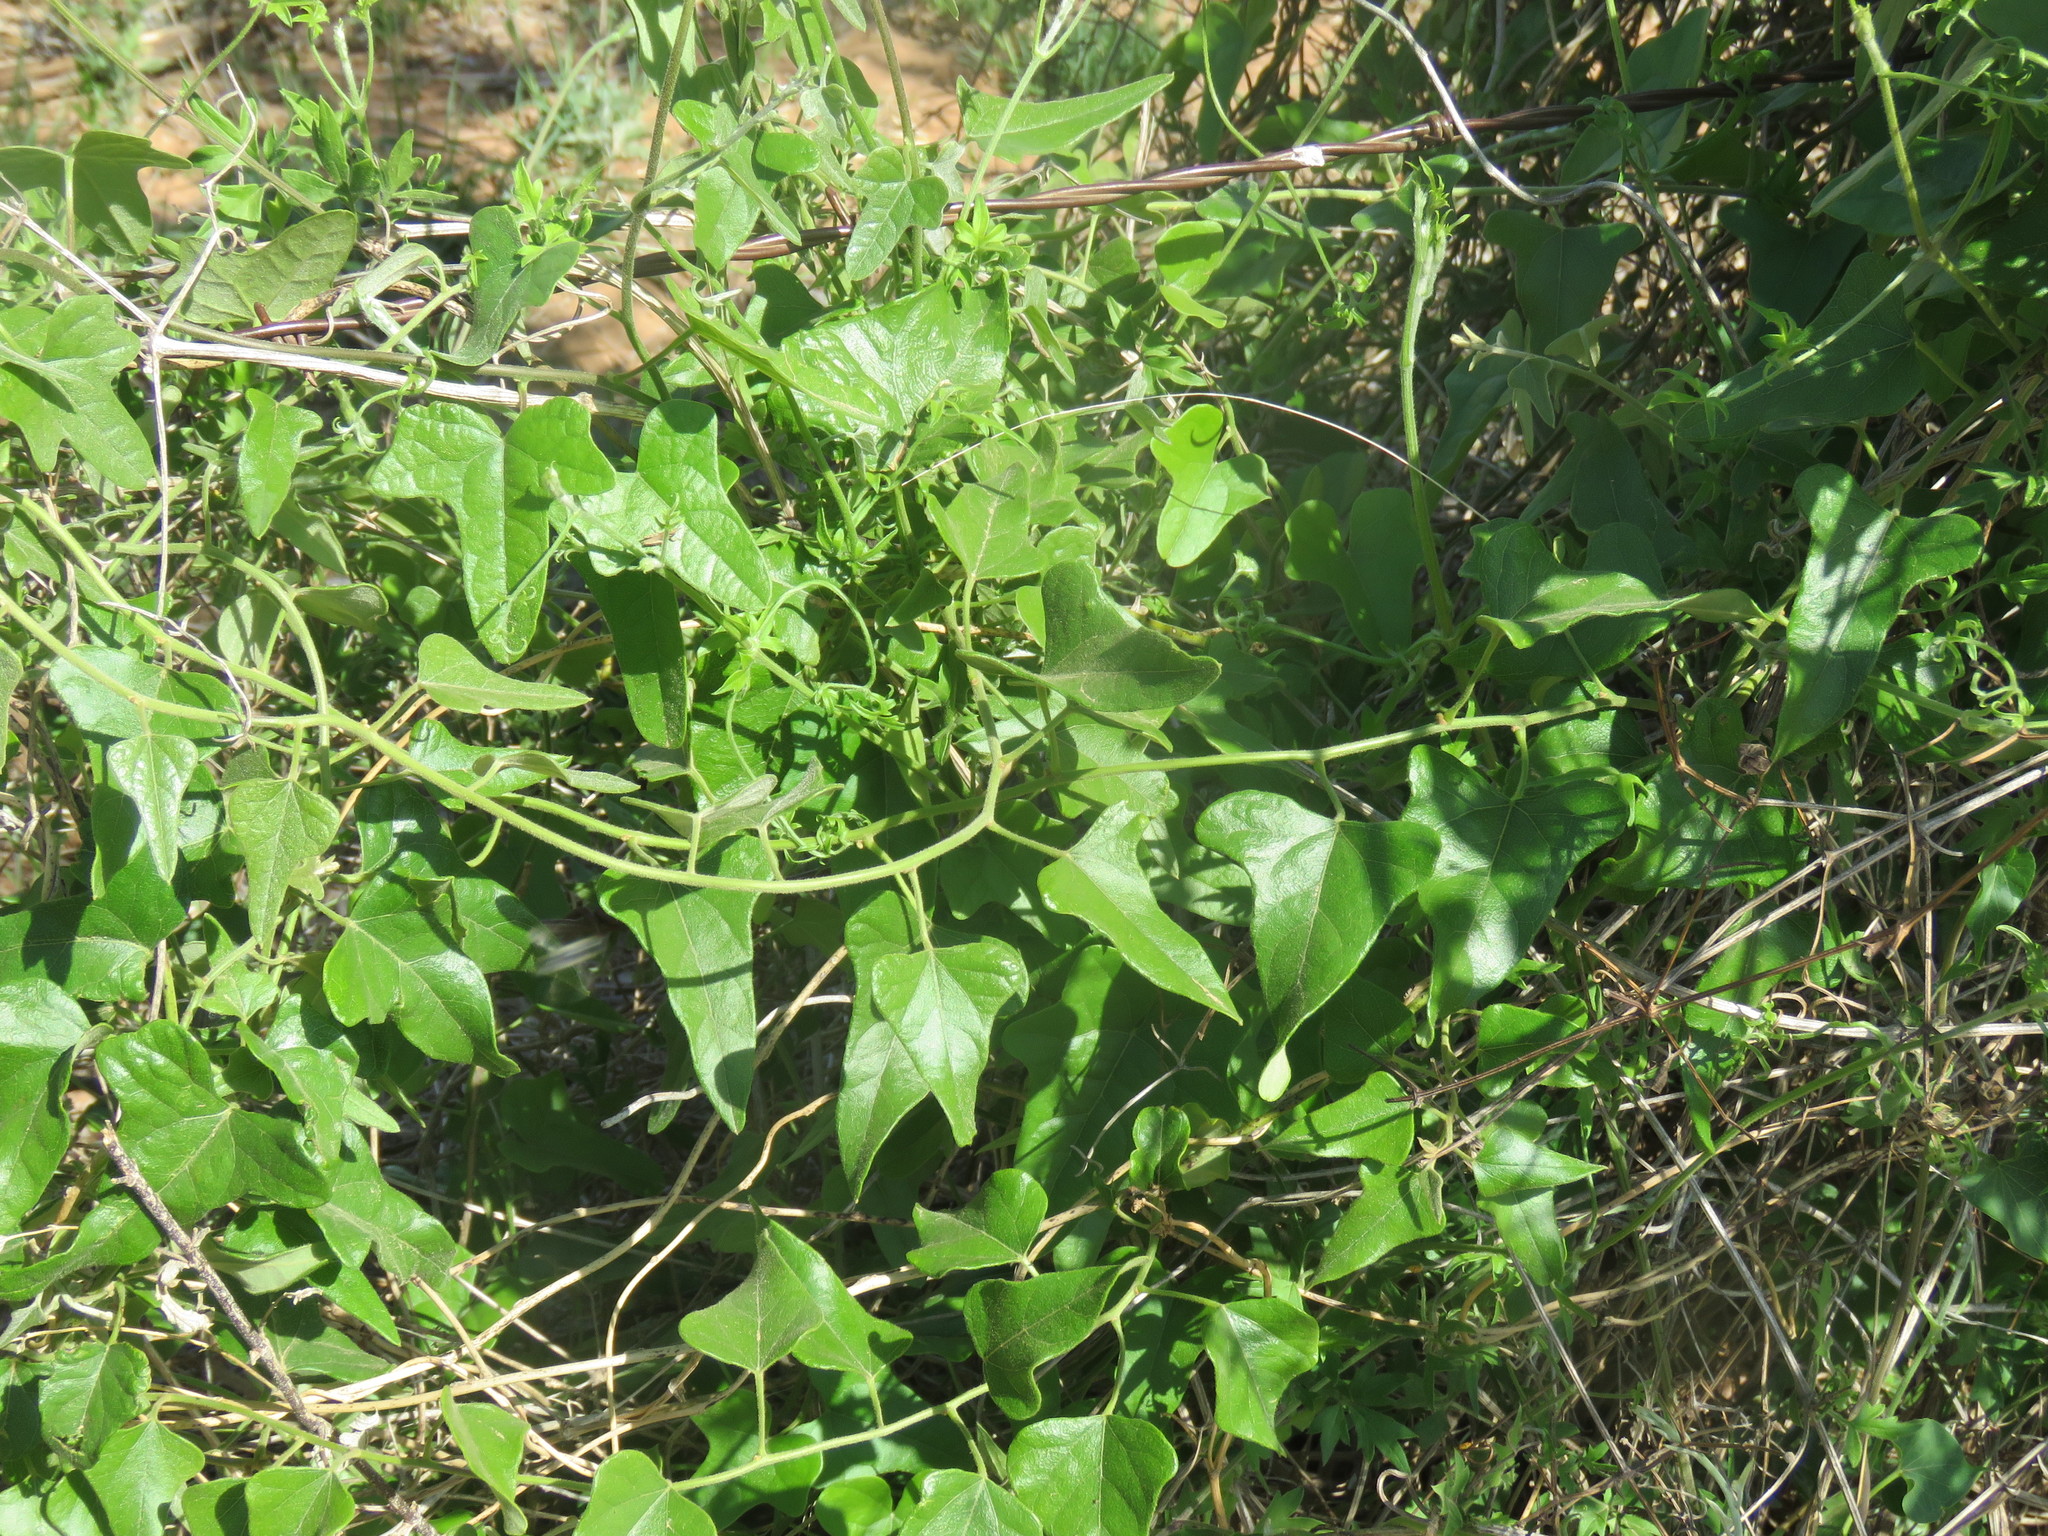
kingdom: Plantae
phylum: Tracheophyta
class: Magnoliopsida
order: Ranunculales
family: Menispermaceae
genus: Cocculus
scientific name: Cocculus carolinus
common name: Carolina moonseed
